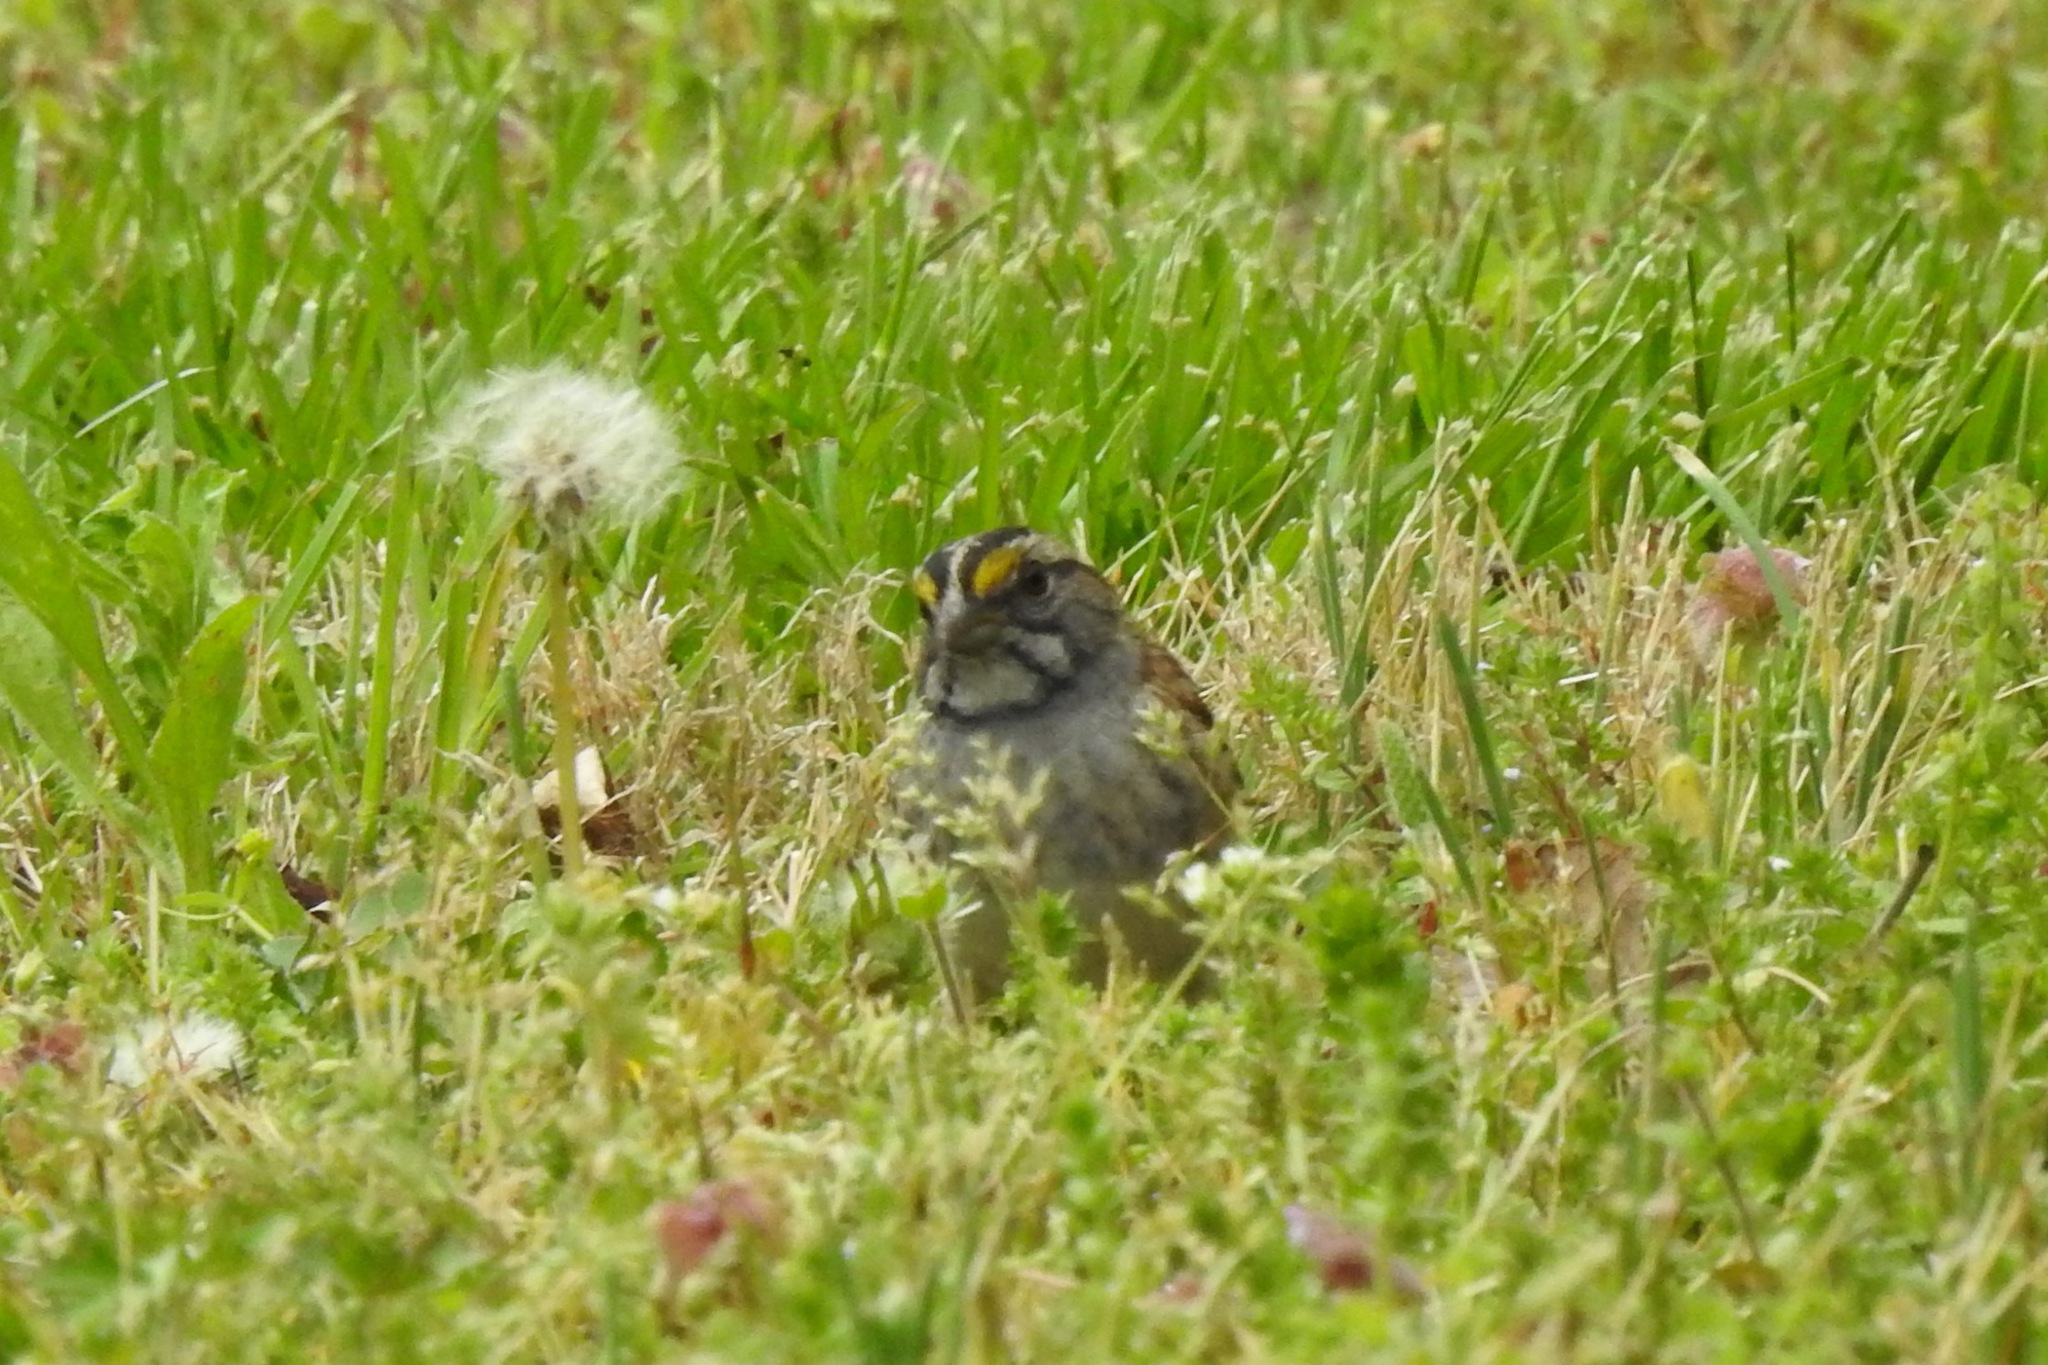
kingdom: Animalia
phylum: Chordata
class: Aves
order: Passeriformes
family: Passerellidae
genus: Zonotrichia
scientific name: Zonotrichia albicollis
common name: White-throated sparrow
